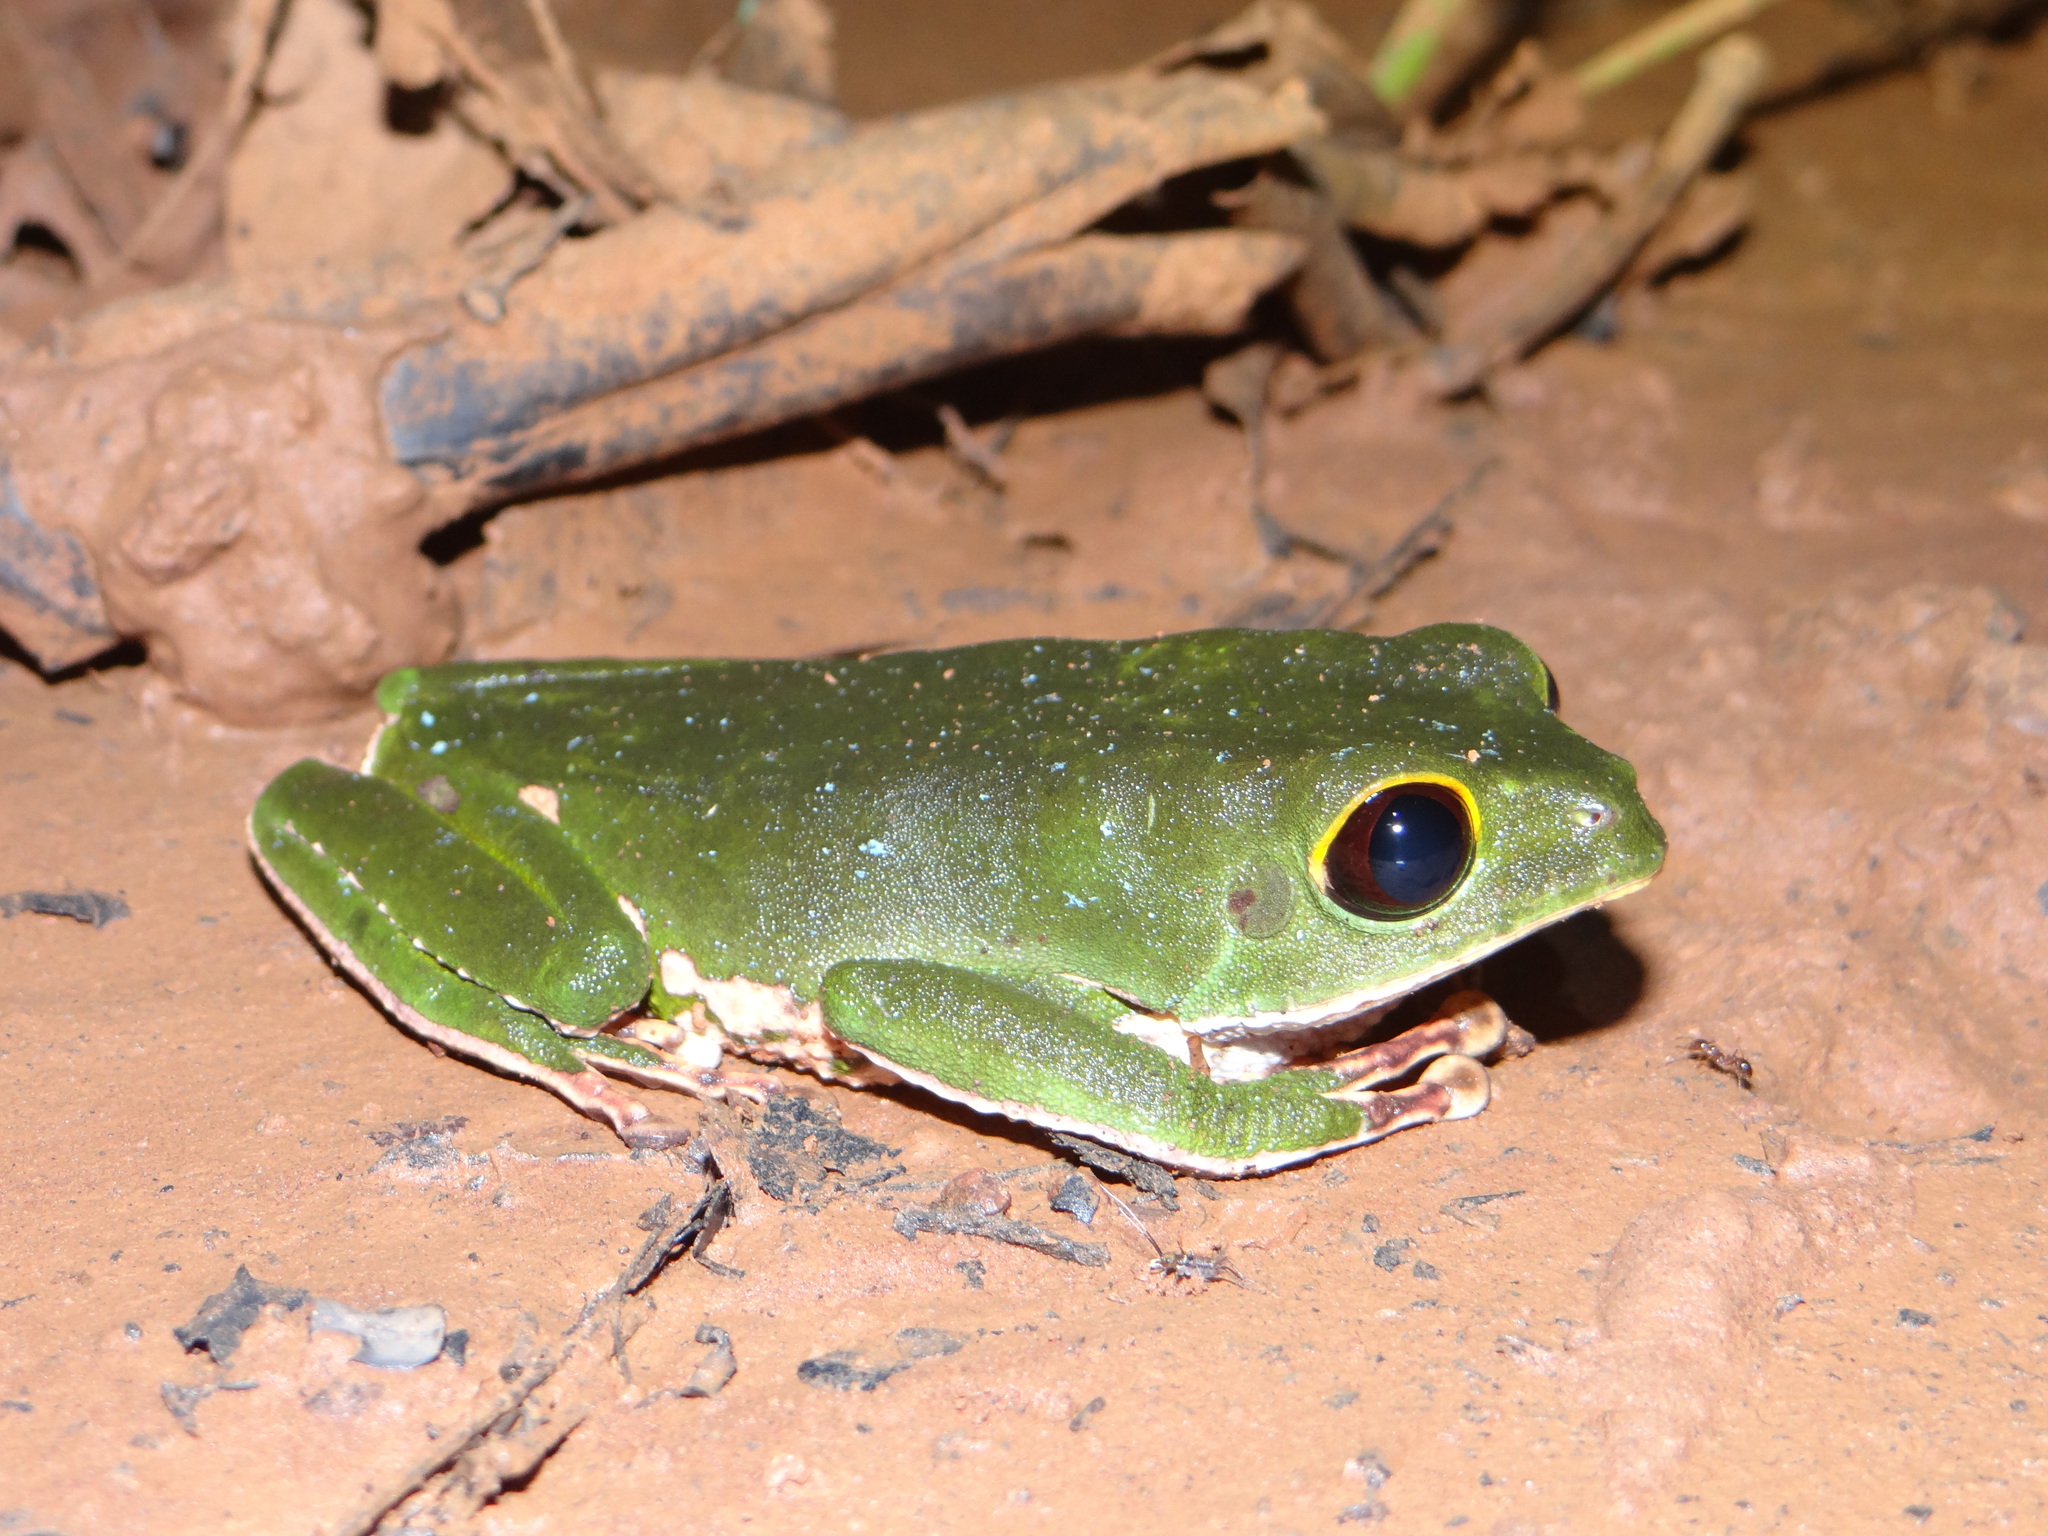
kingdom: Animalia
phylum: Chordata
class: Amphibia
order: Anura
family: Phyllomedusidae
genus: Phyllomedusa
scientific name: Phyllomedusa camba
